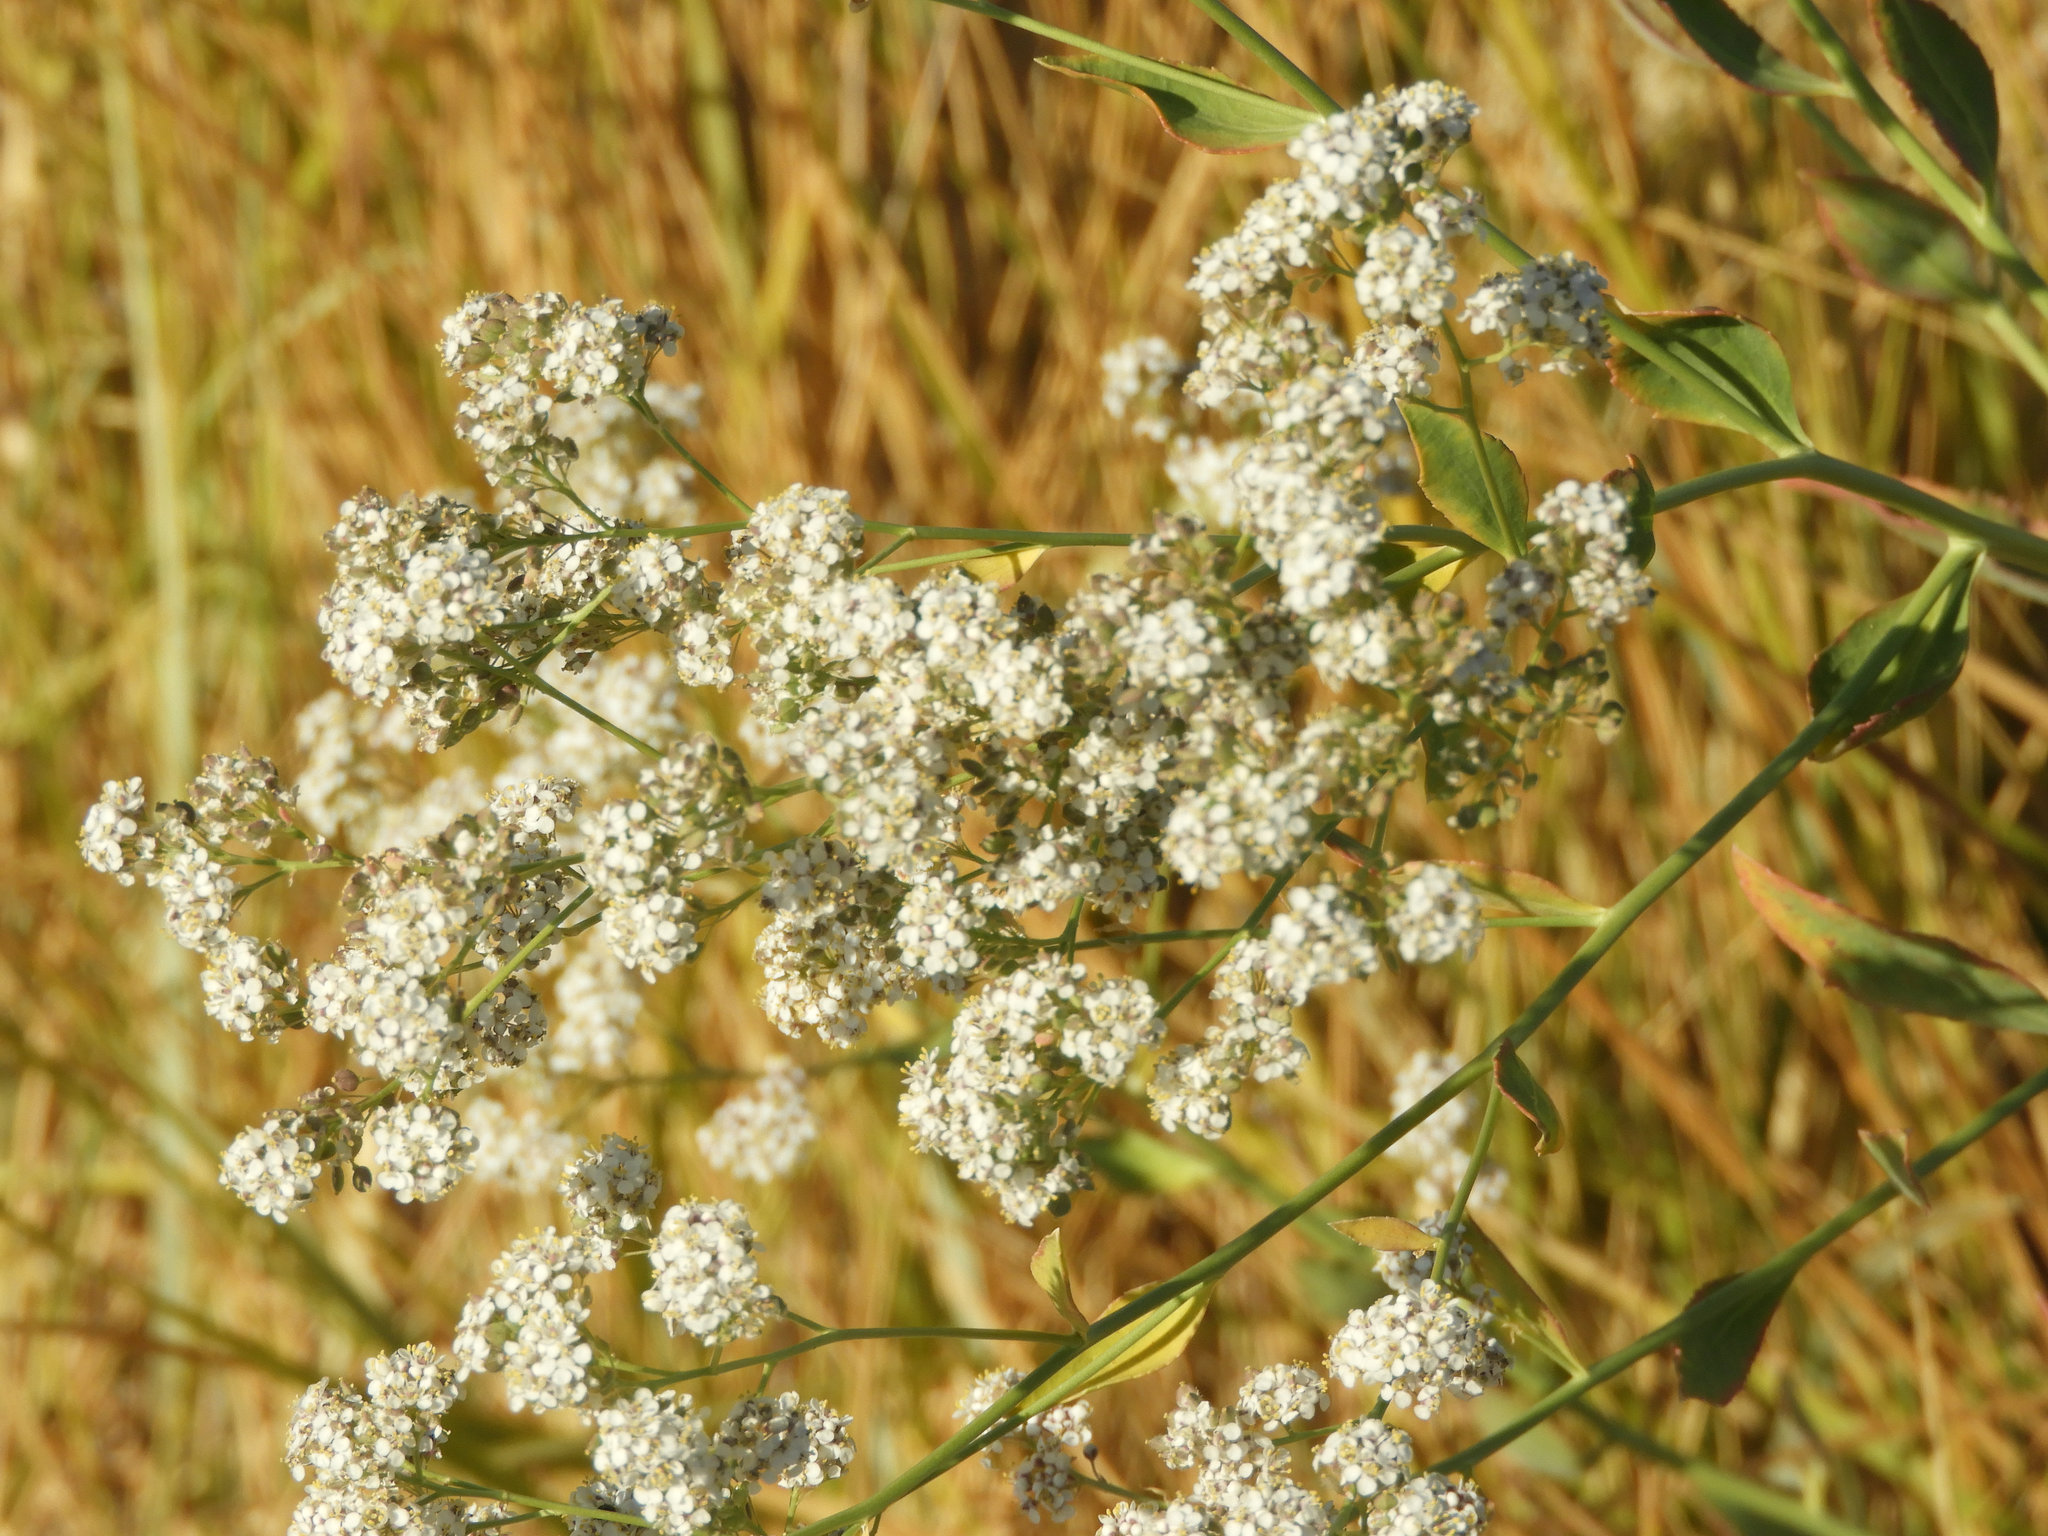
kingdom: Plantae
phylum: Tracheophyta
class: Magnoliopsida
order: Brassicales
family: Brassicaceae
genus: Lepidium
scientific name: Lepidium latifolium
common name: Dittander
